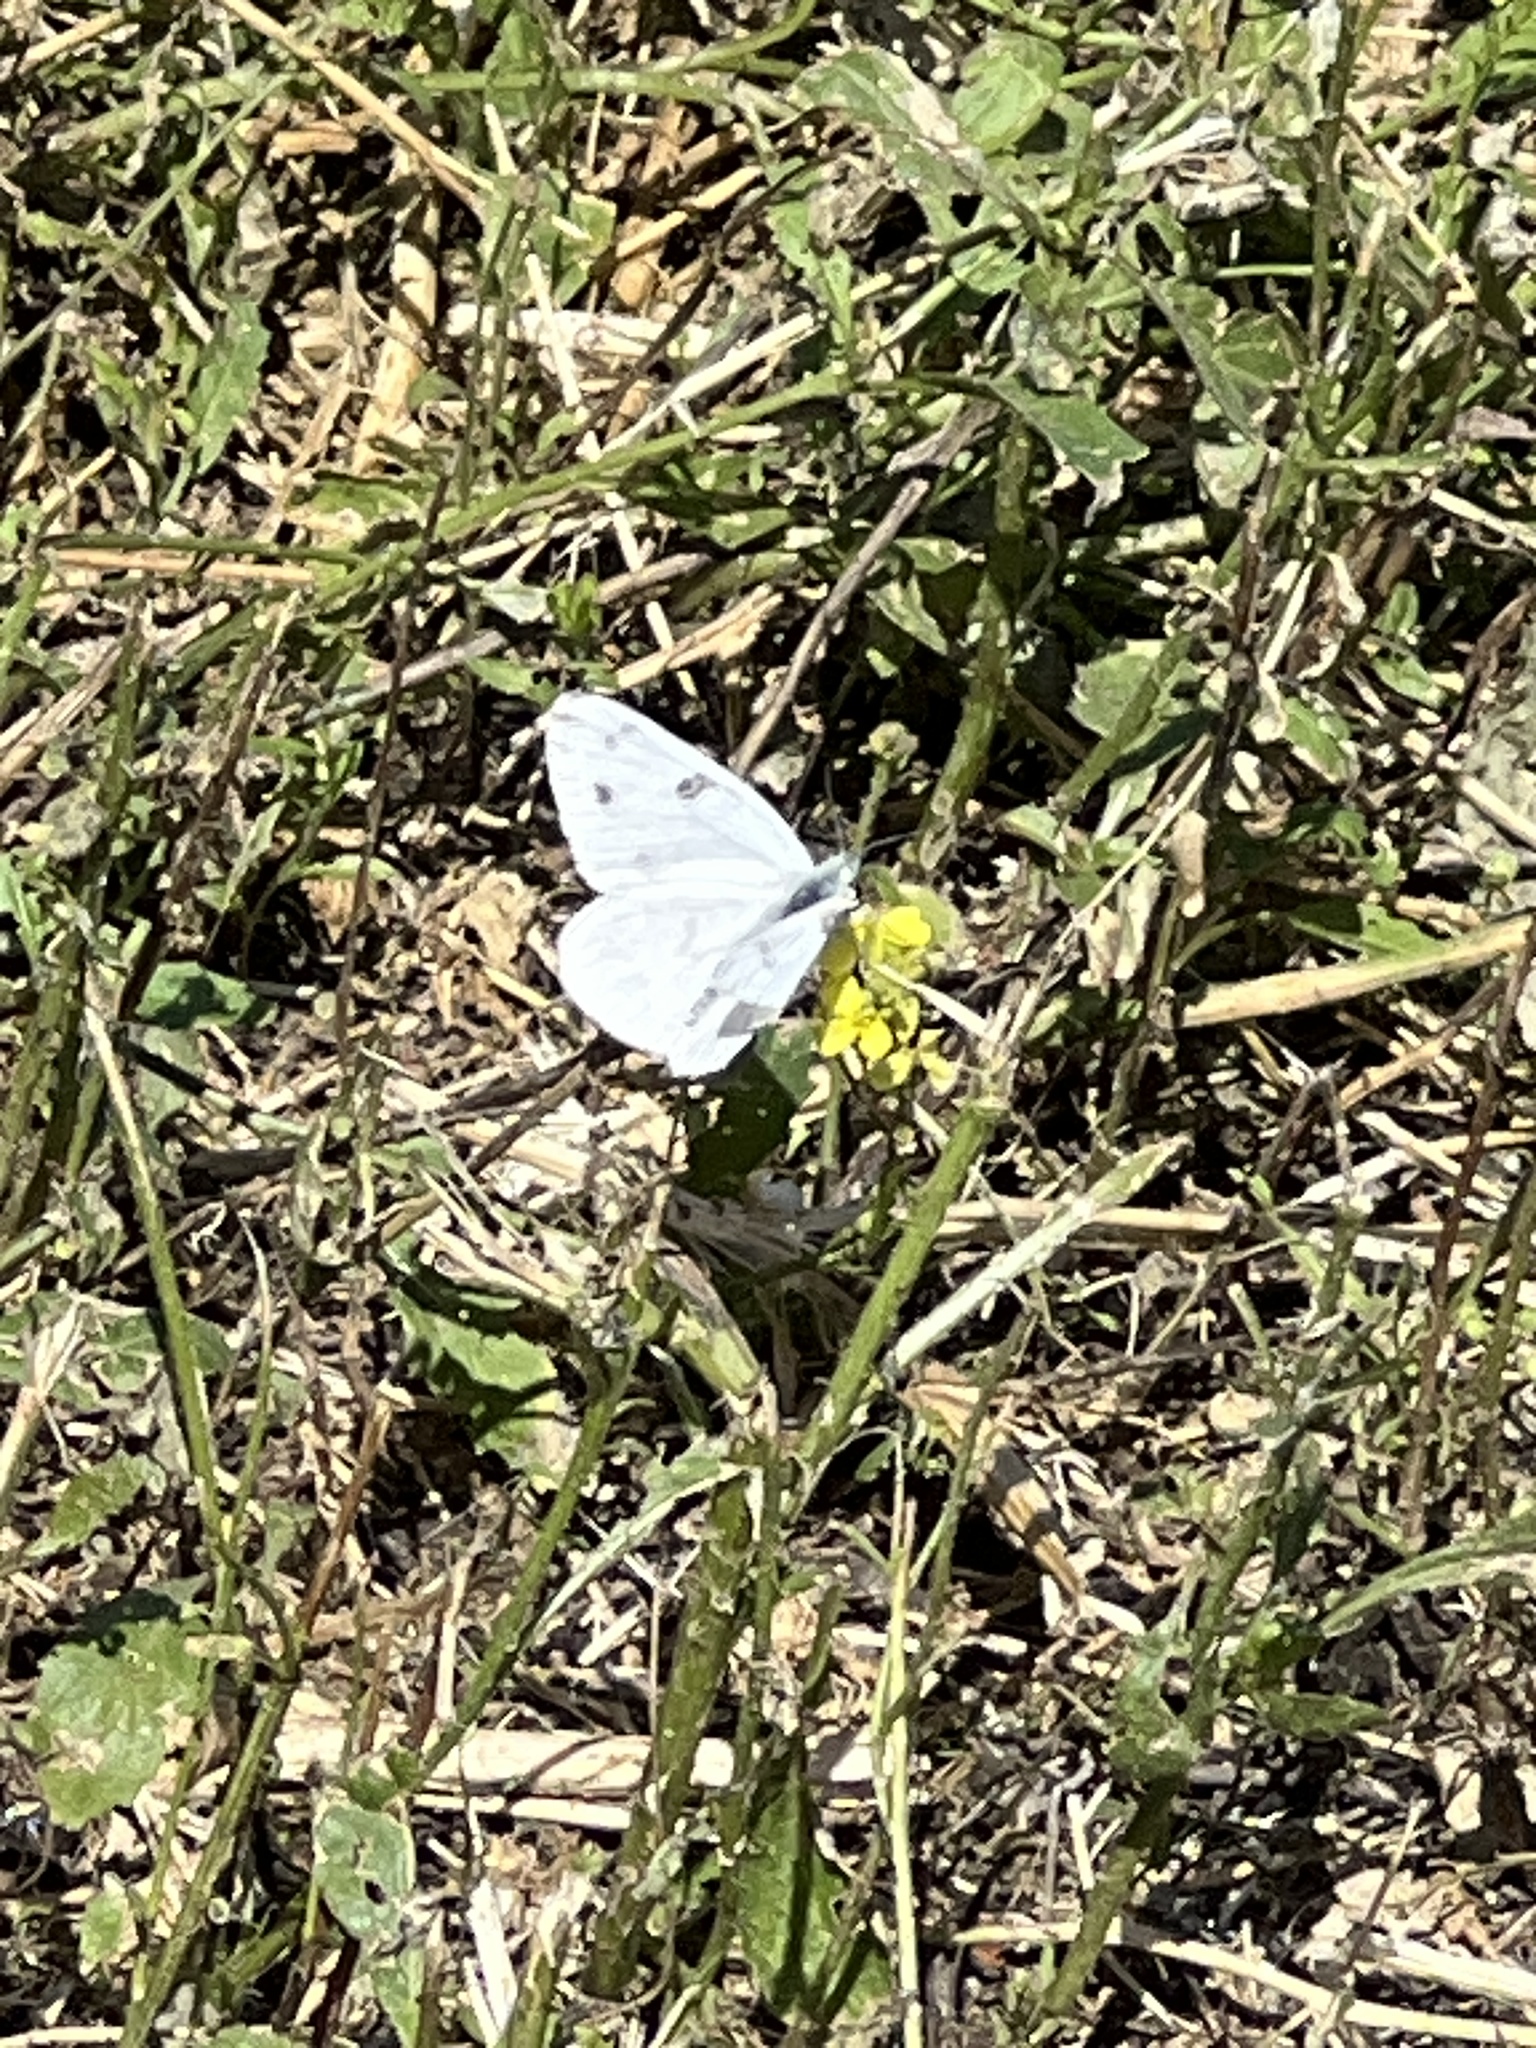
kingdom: Animalia
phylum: Arthropoda
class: Insecta
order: Lepidoptera
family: Pieridae
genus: Pontia
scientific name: Pontia protodice
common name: Checkered white
